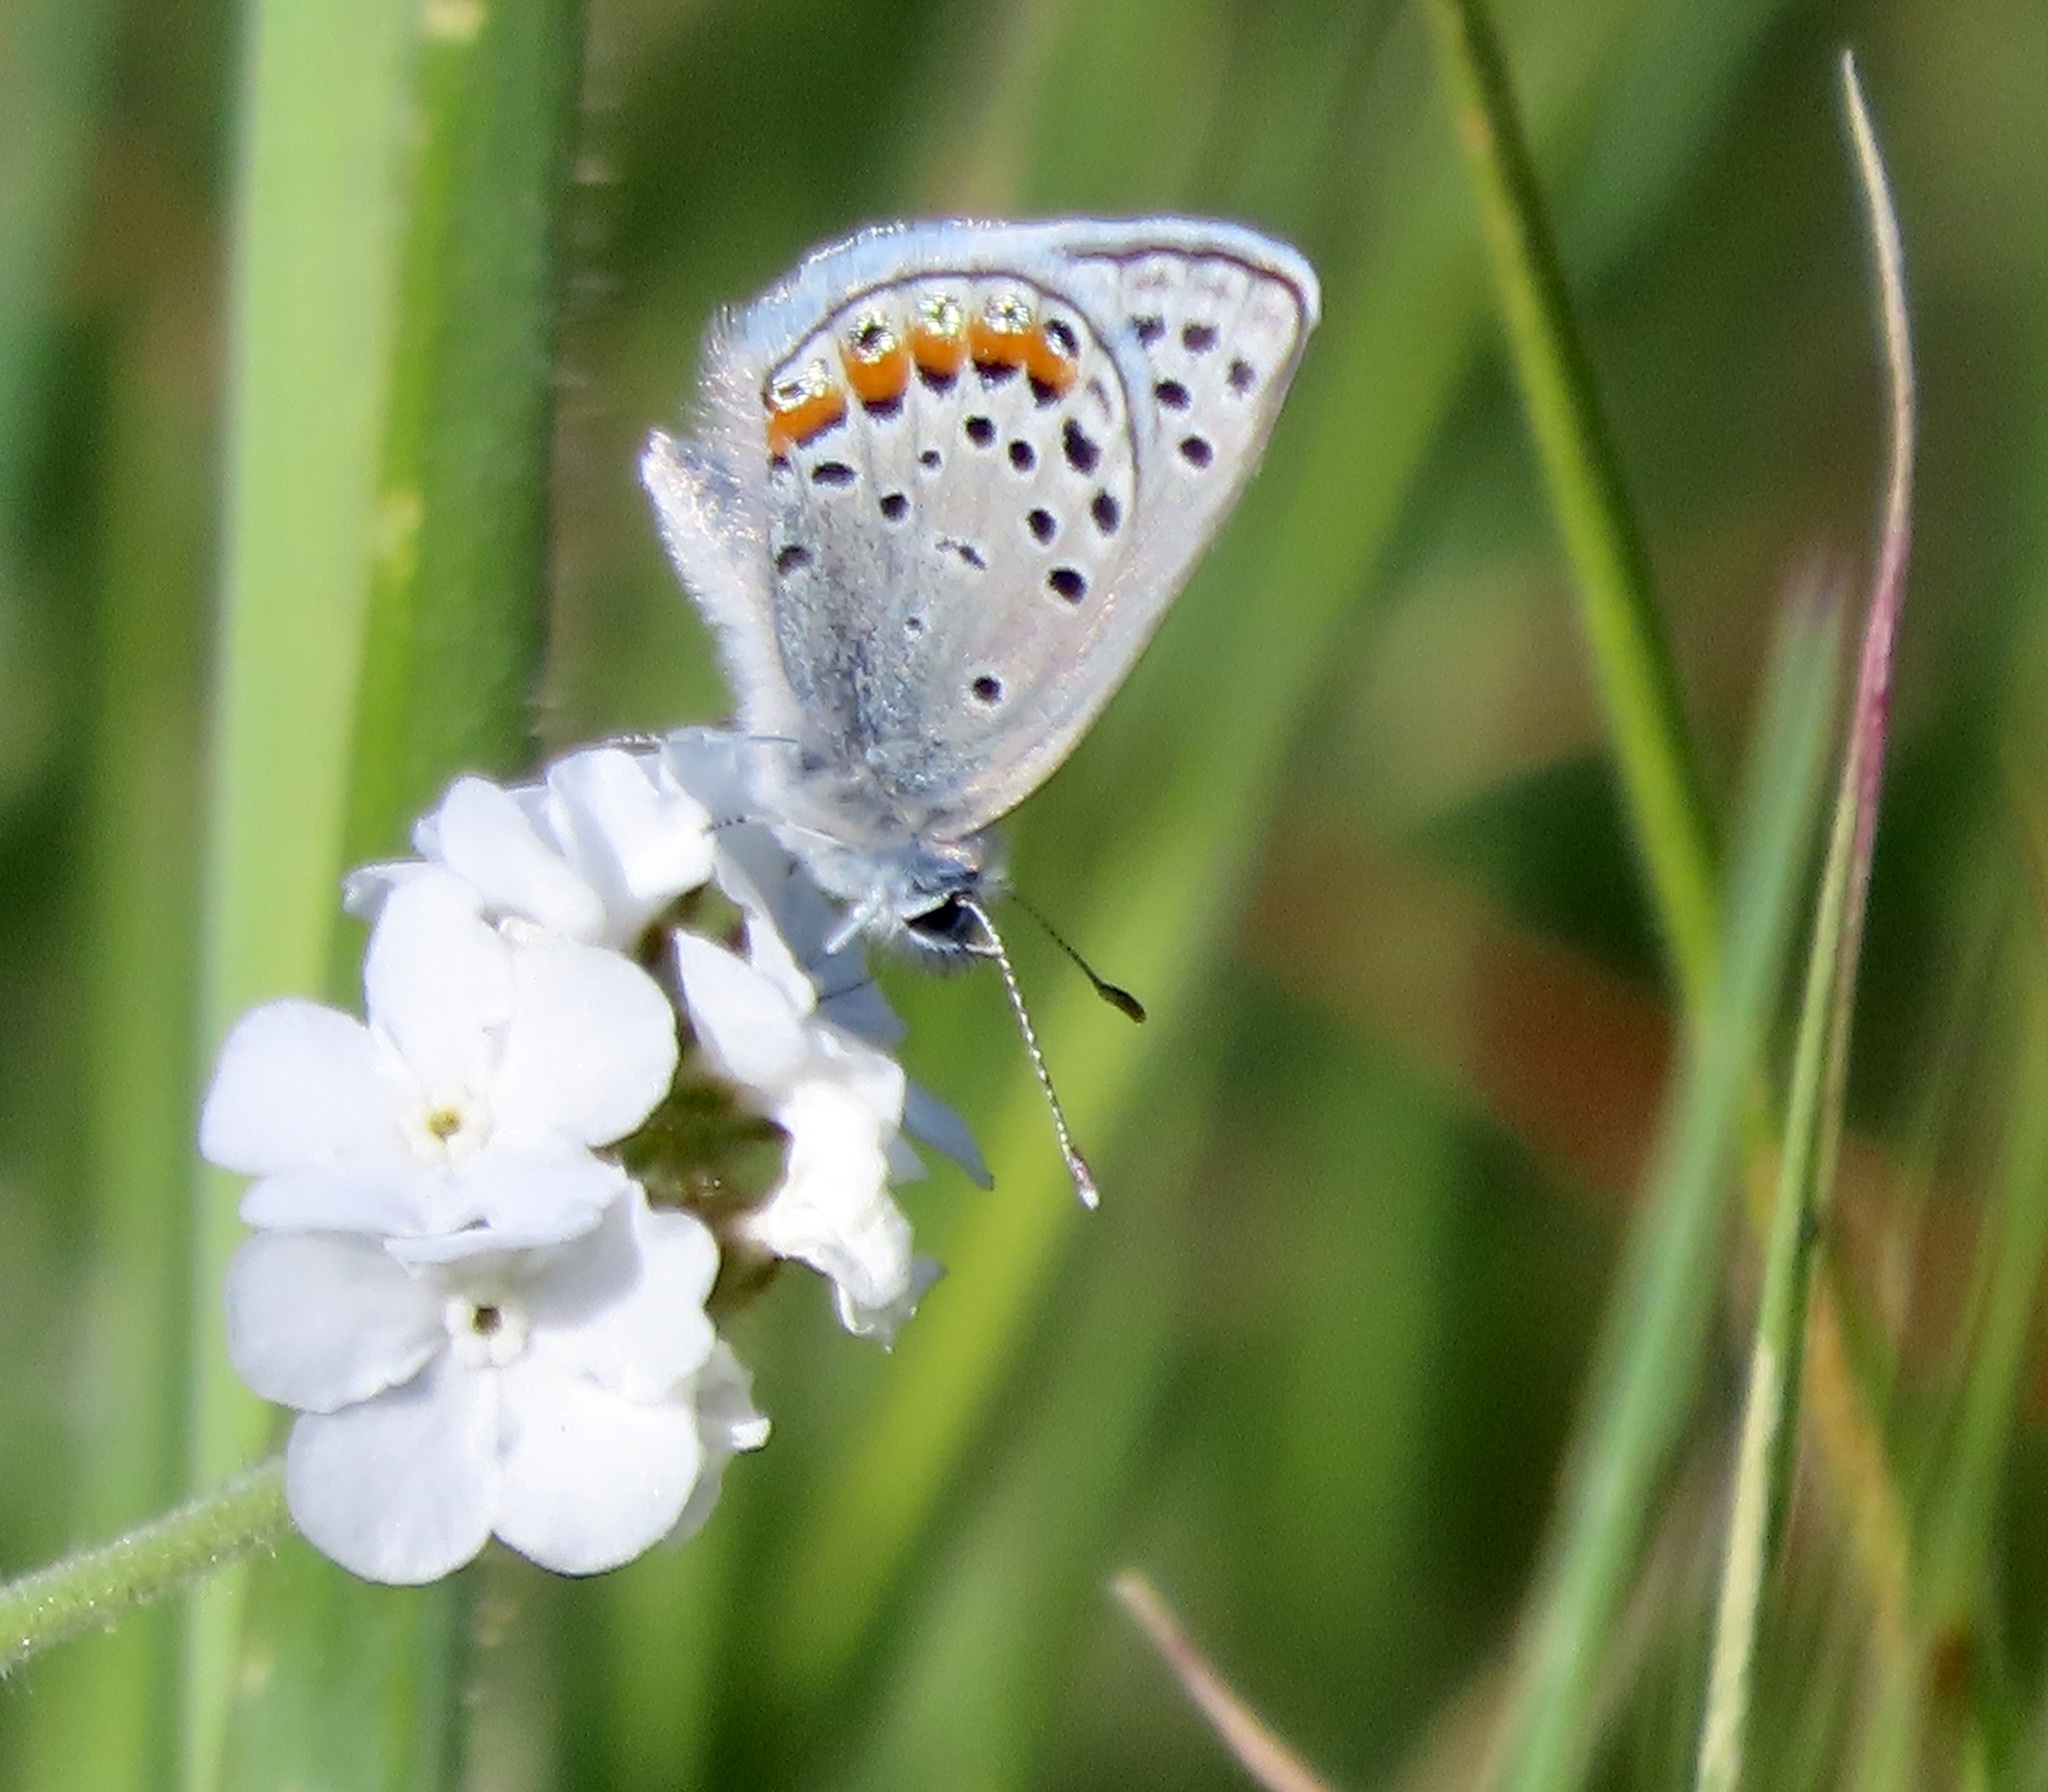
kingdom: Animalia
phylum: Arthropoda
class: Insecta
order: Lepidoptera
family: Lycaenidae
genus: Icaricia
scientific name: Icaricia acmon
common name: Acmon blue
